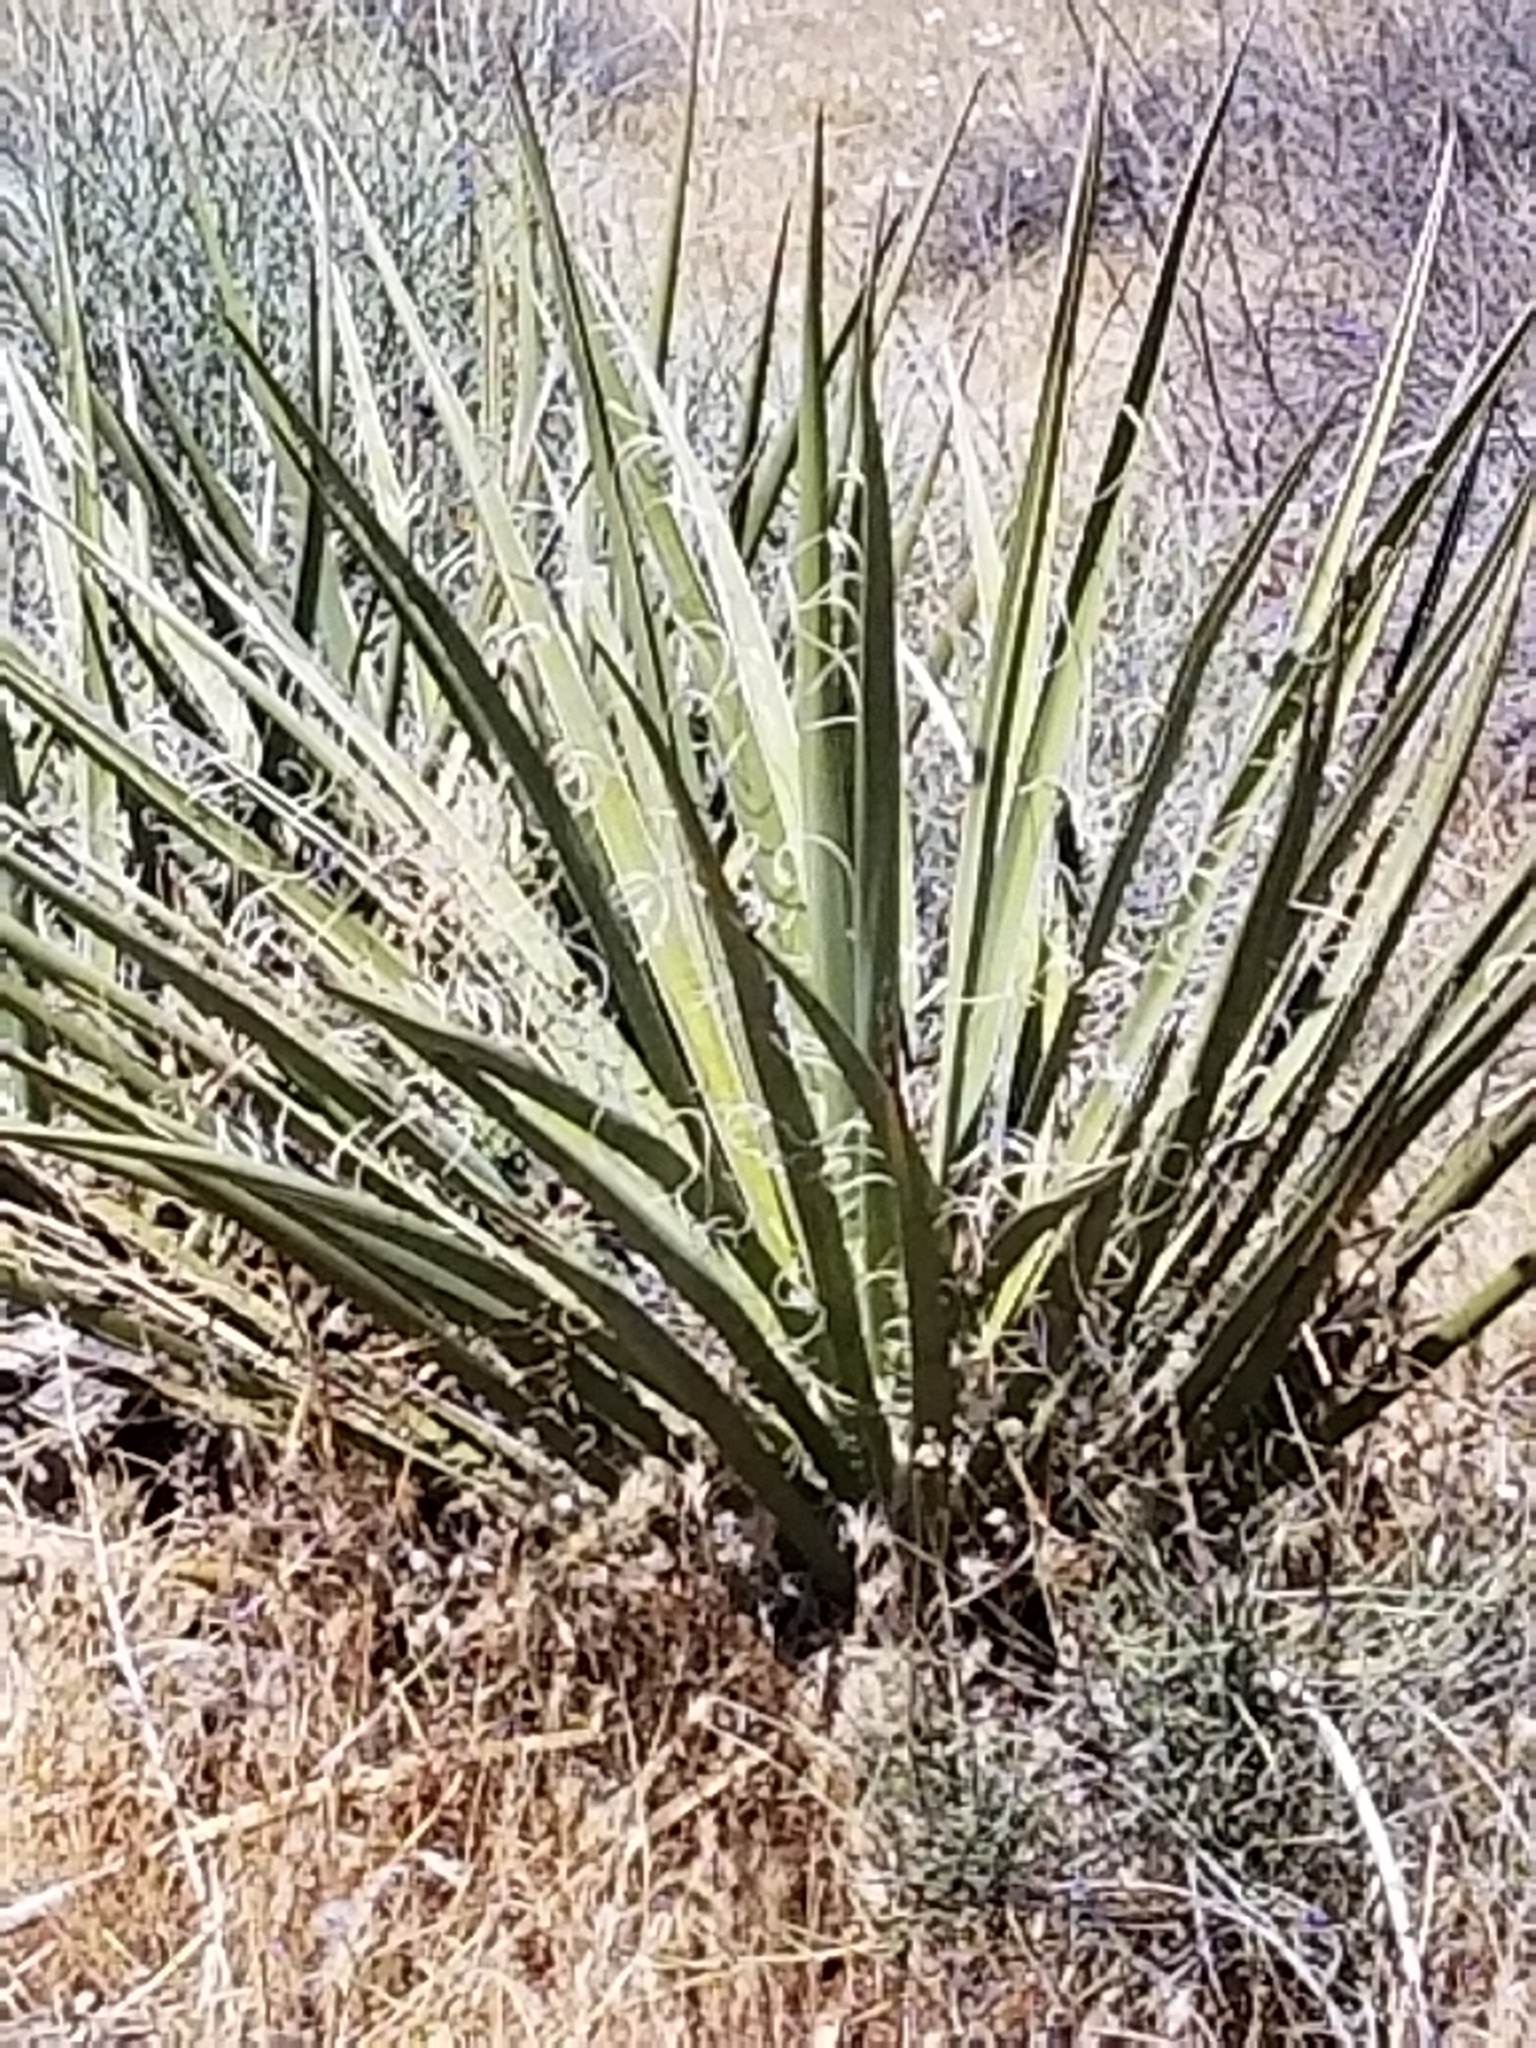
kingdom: Plantae
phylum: Tracheophyta
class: Liliopsida
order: Asparagales
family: Asparagaceae
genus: Yucca
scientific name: Yucca schidigera
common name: Mojave yucca
